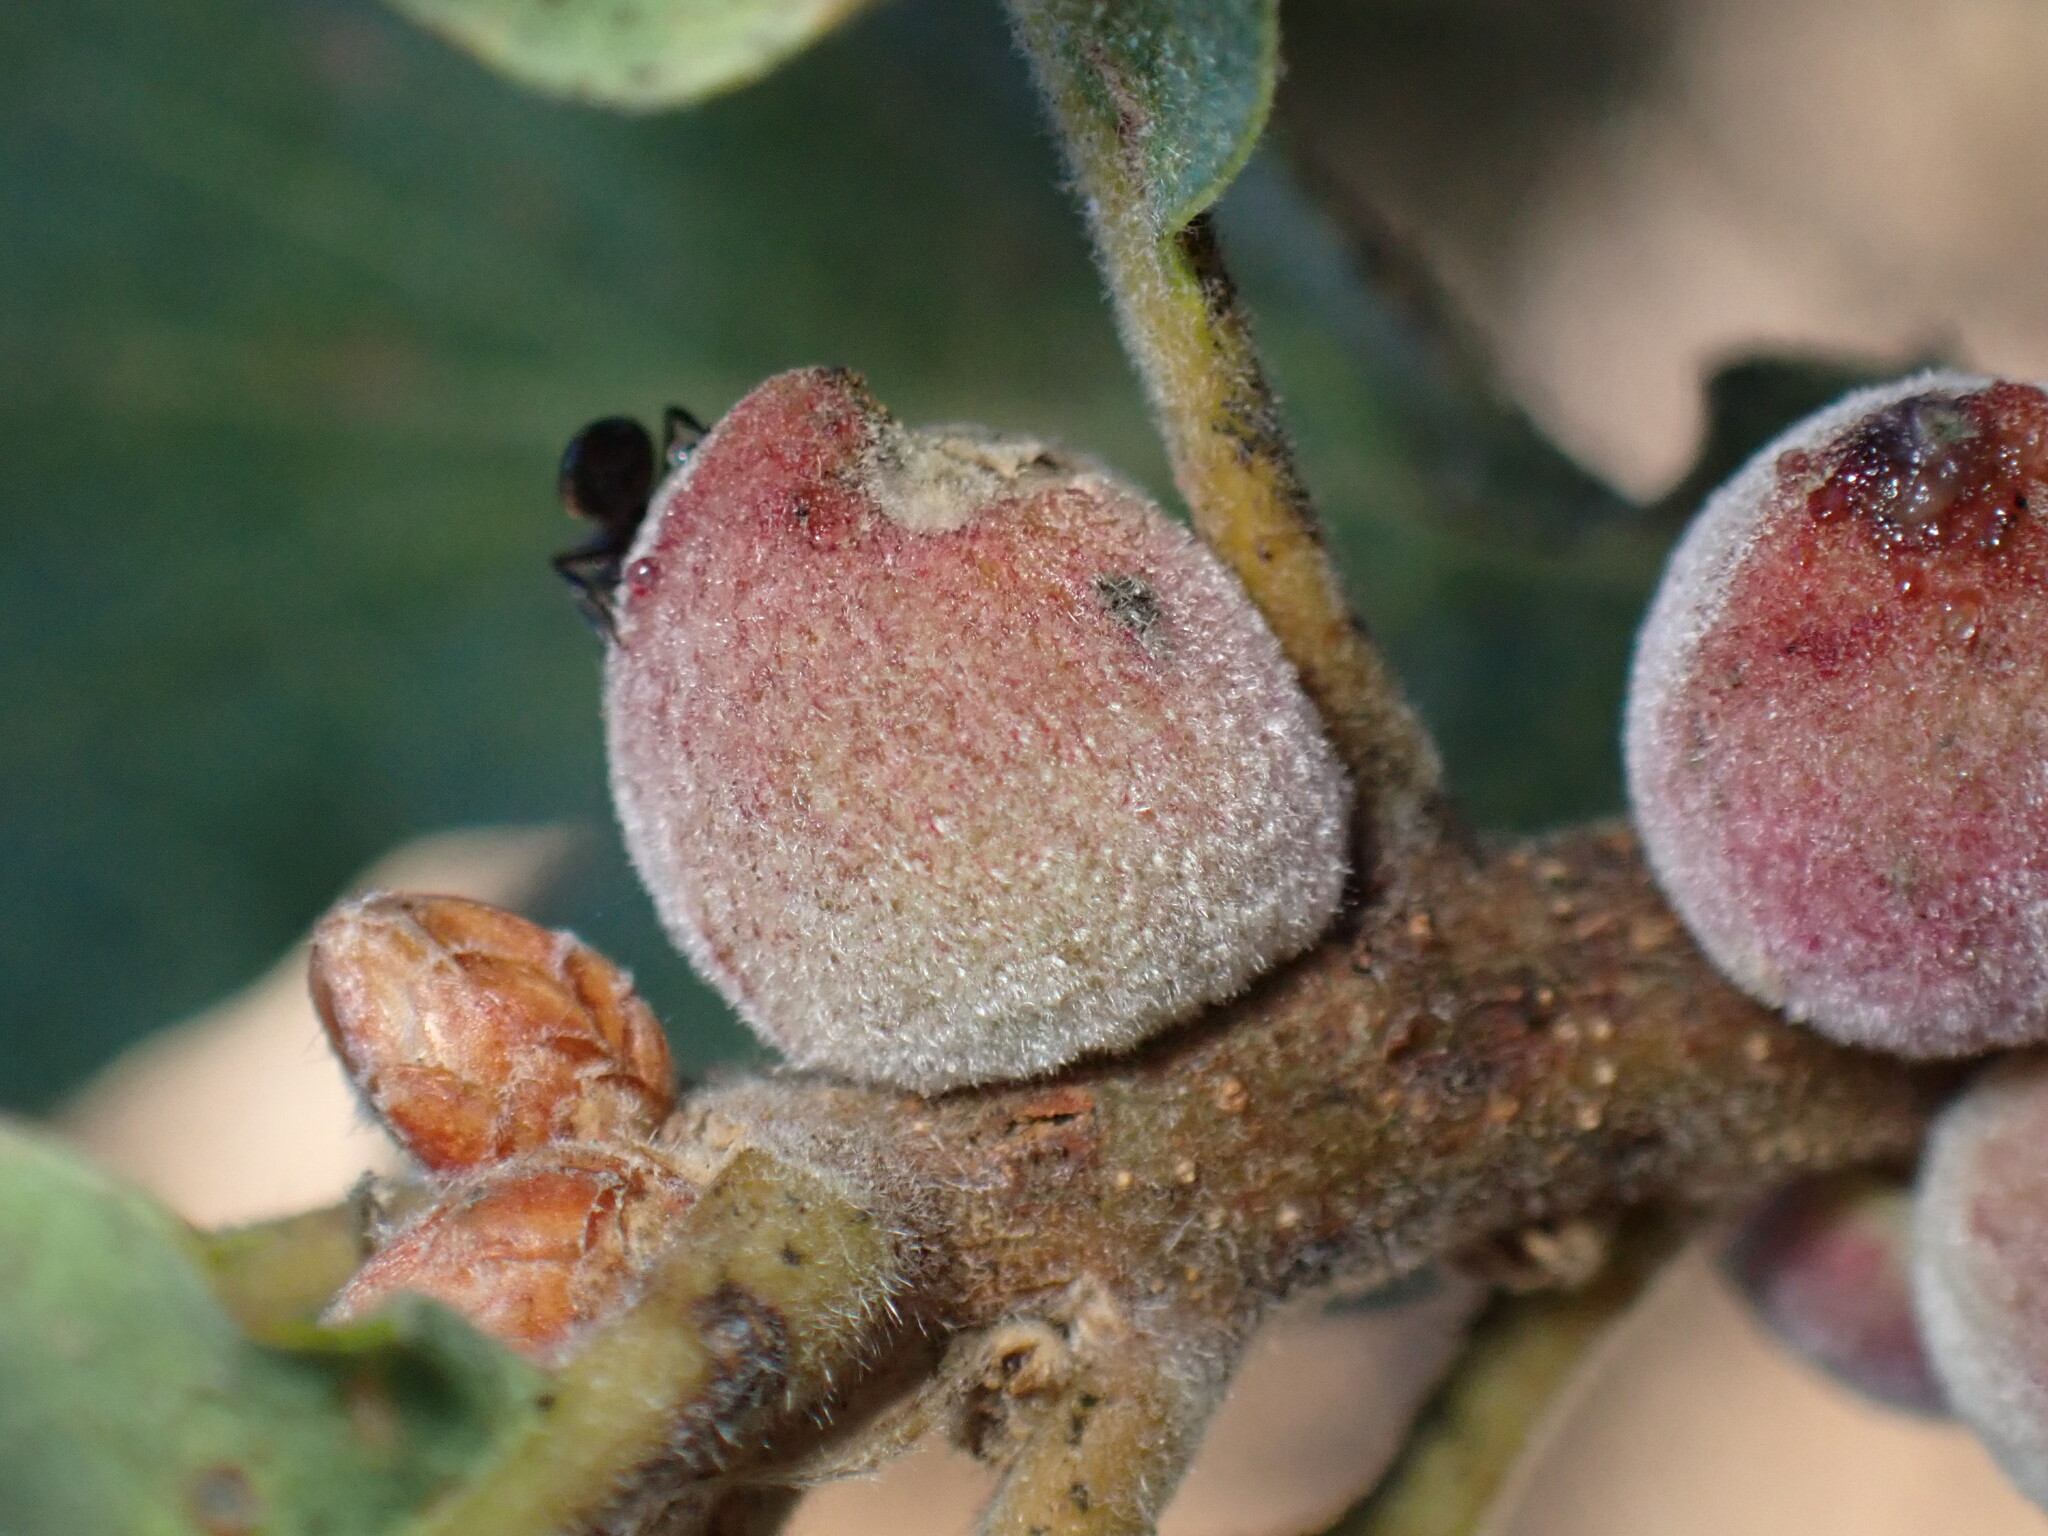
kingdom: Animalia
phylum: Arthropoda
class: Insecta
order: Hymenoptera
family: Cynipidae
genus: Disholcaspis
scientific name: Disholcaspis
